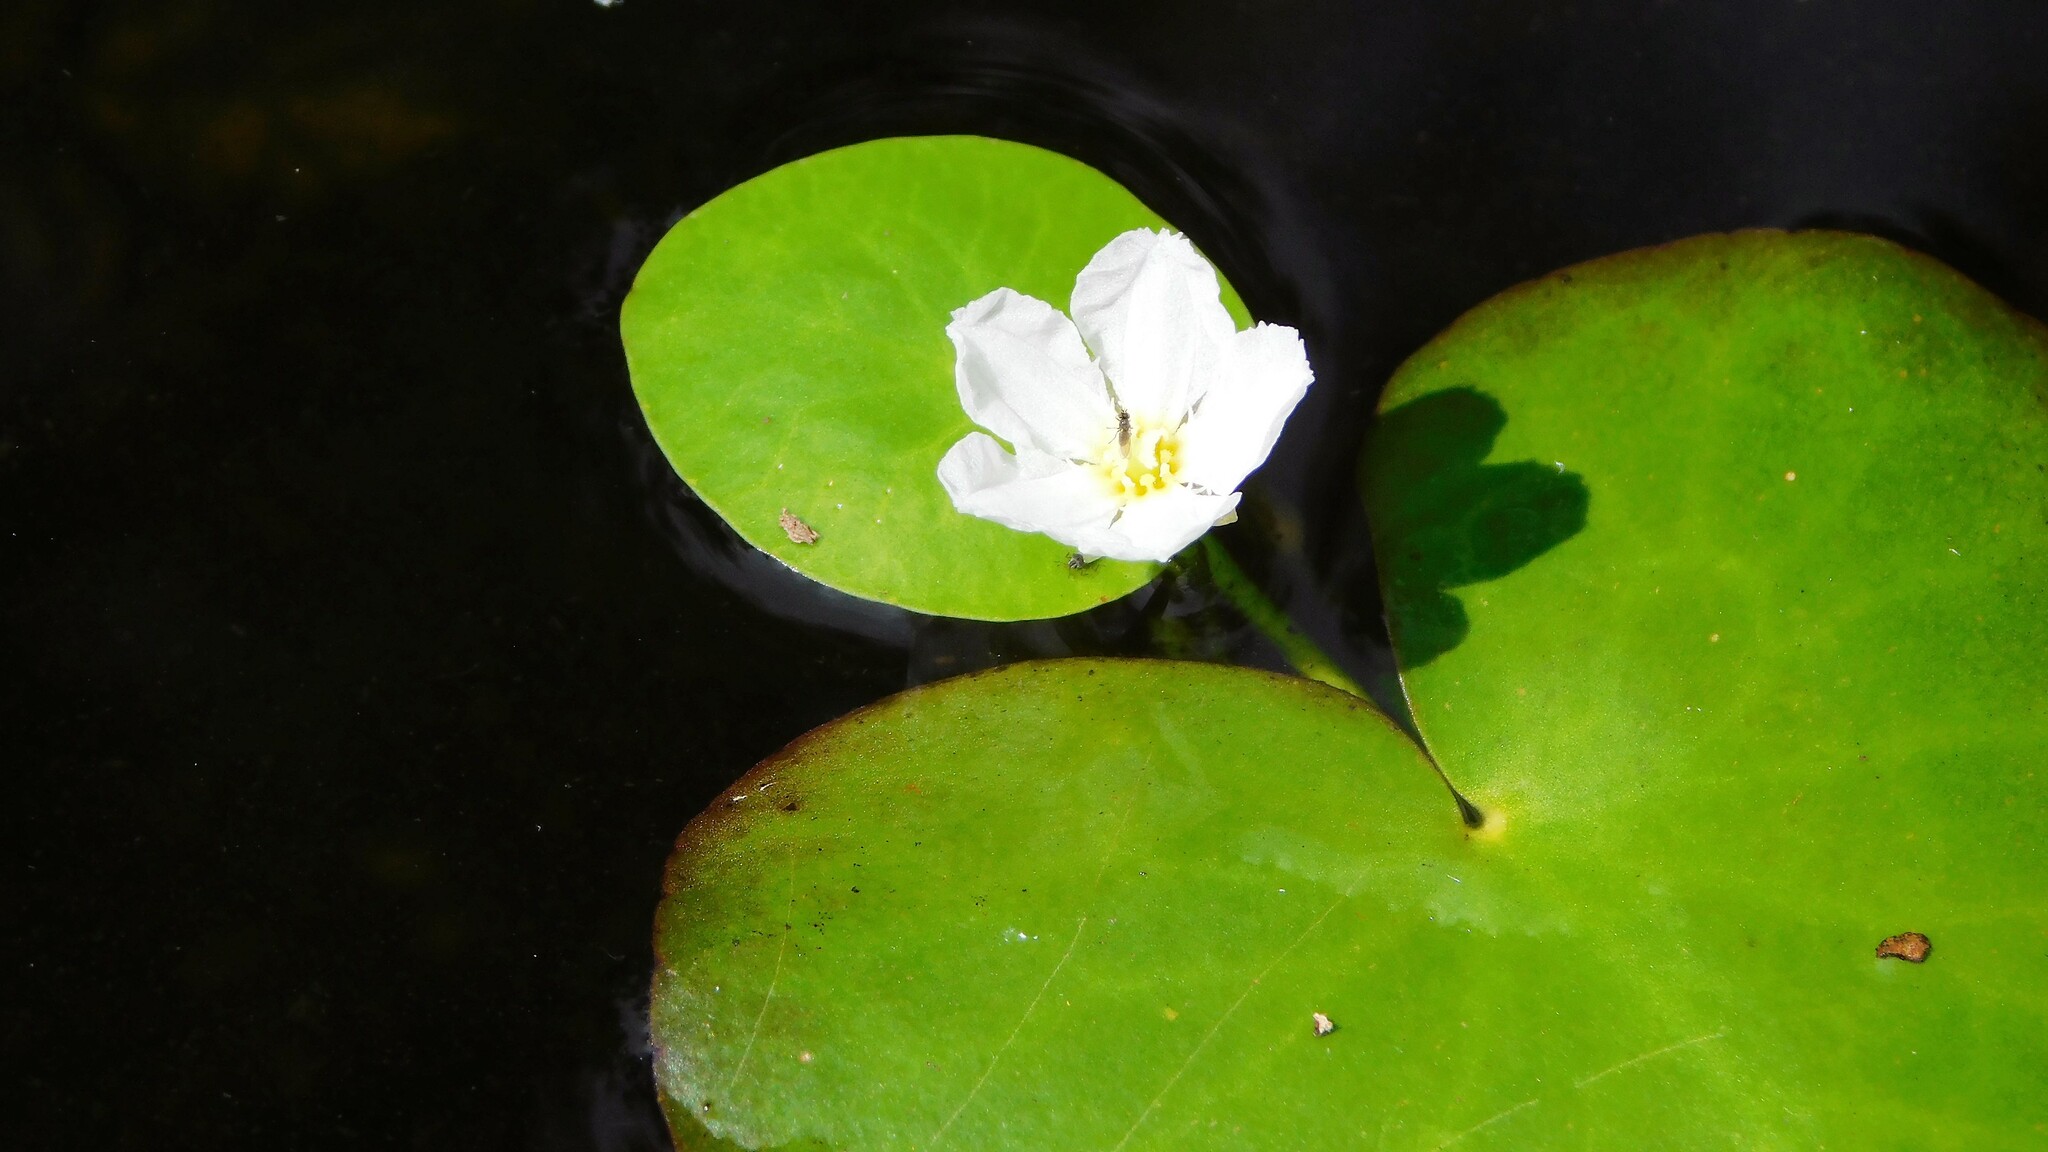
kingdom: Plantae
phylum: Tracheophyta
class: Magnoliopsida
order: Asterales
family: Menyanthaceae
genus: Nymphoides
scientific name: Nymphoides aquatica
